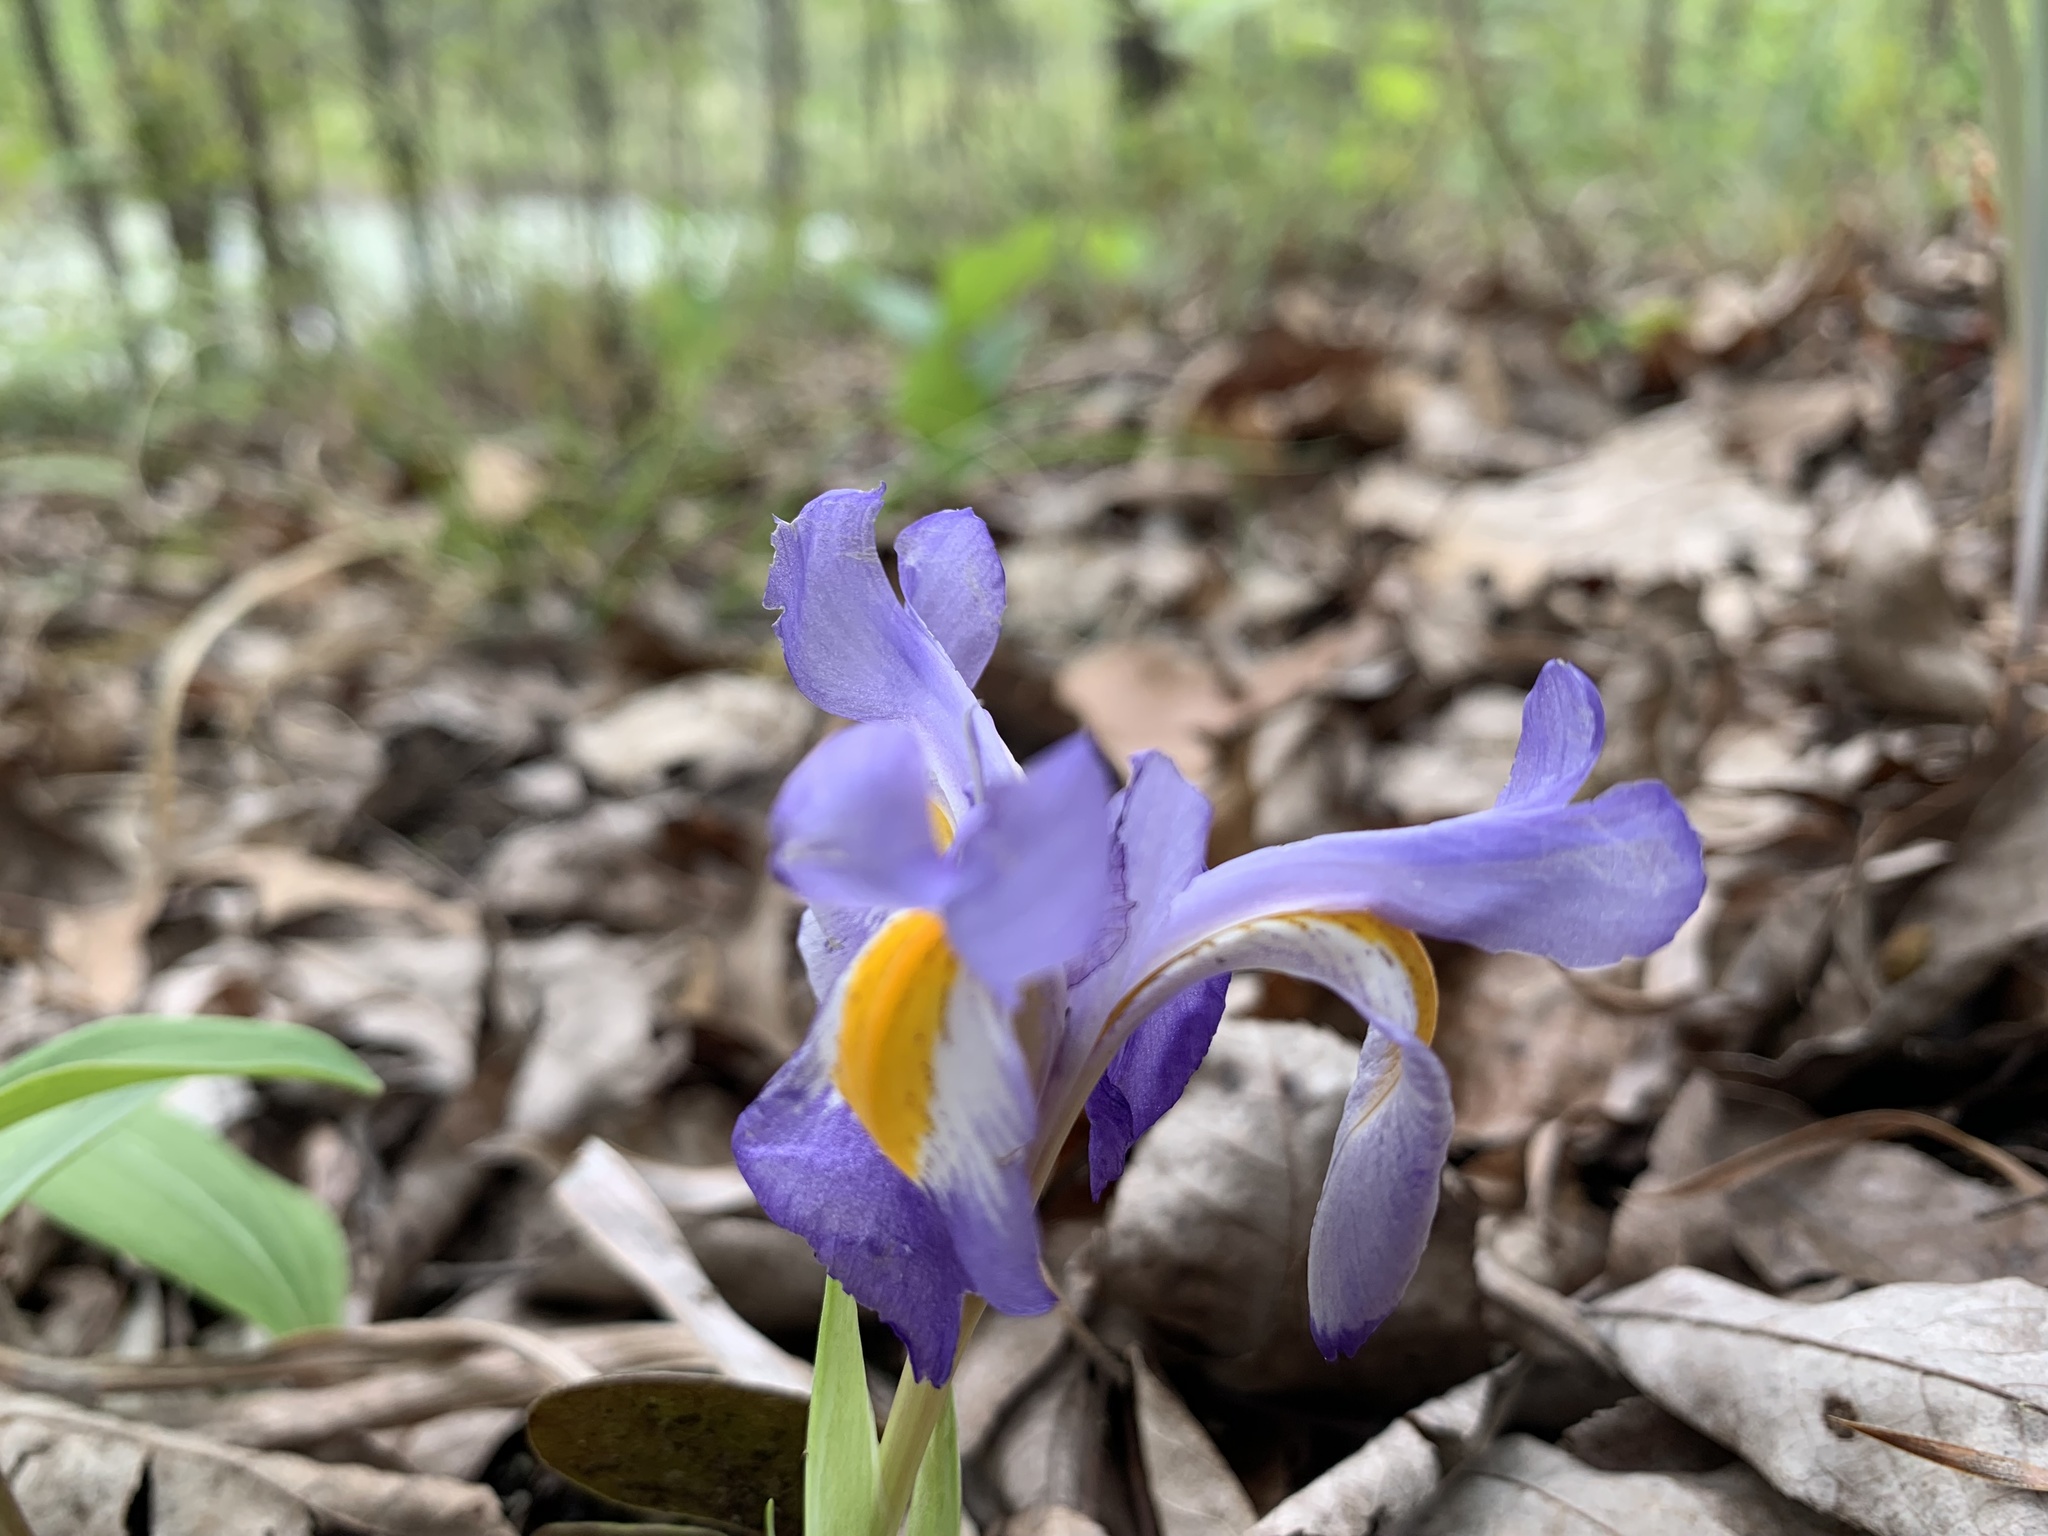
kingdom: Plantae
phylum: Tracheophyta
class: Liliopsida
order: Asparagales
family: Iridaceae
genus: Iris
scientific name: Iris verna
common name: Dwarf iris
